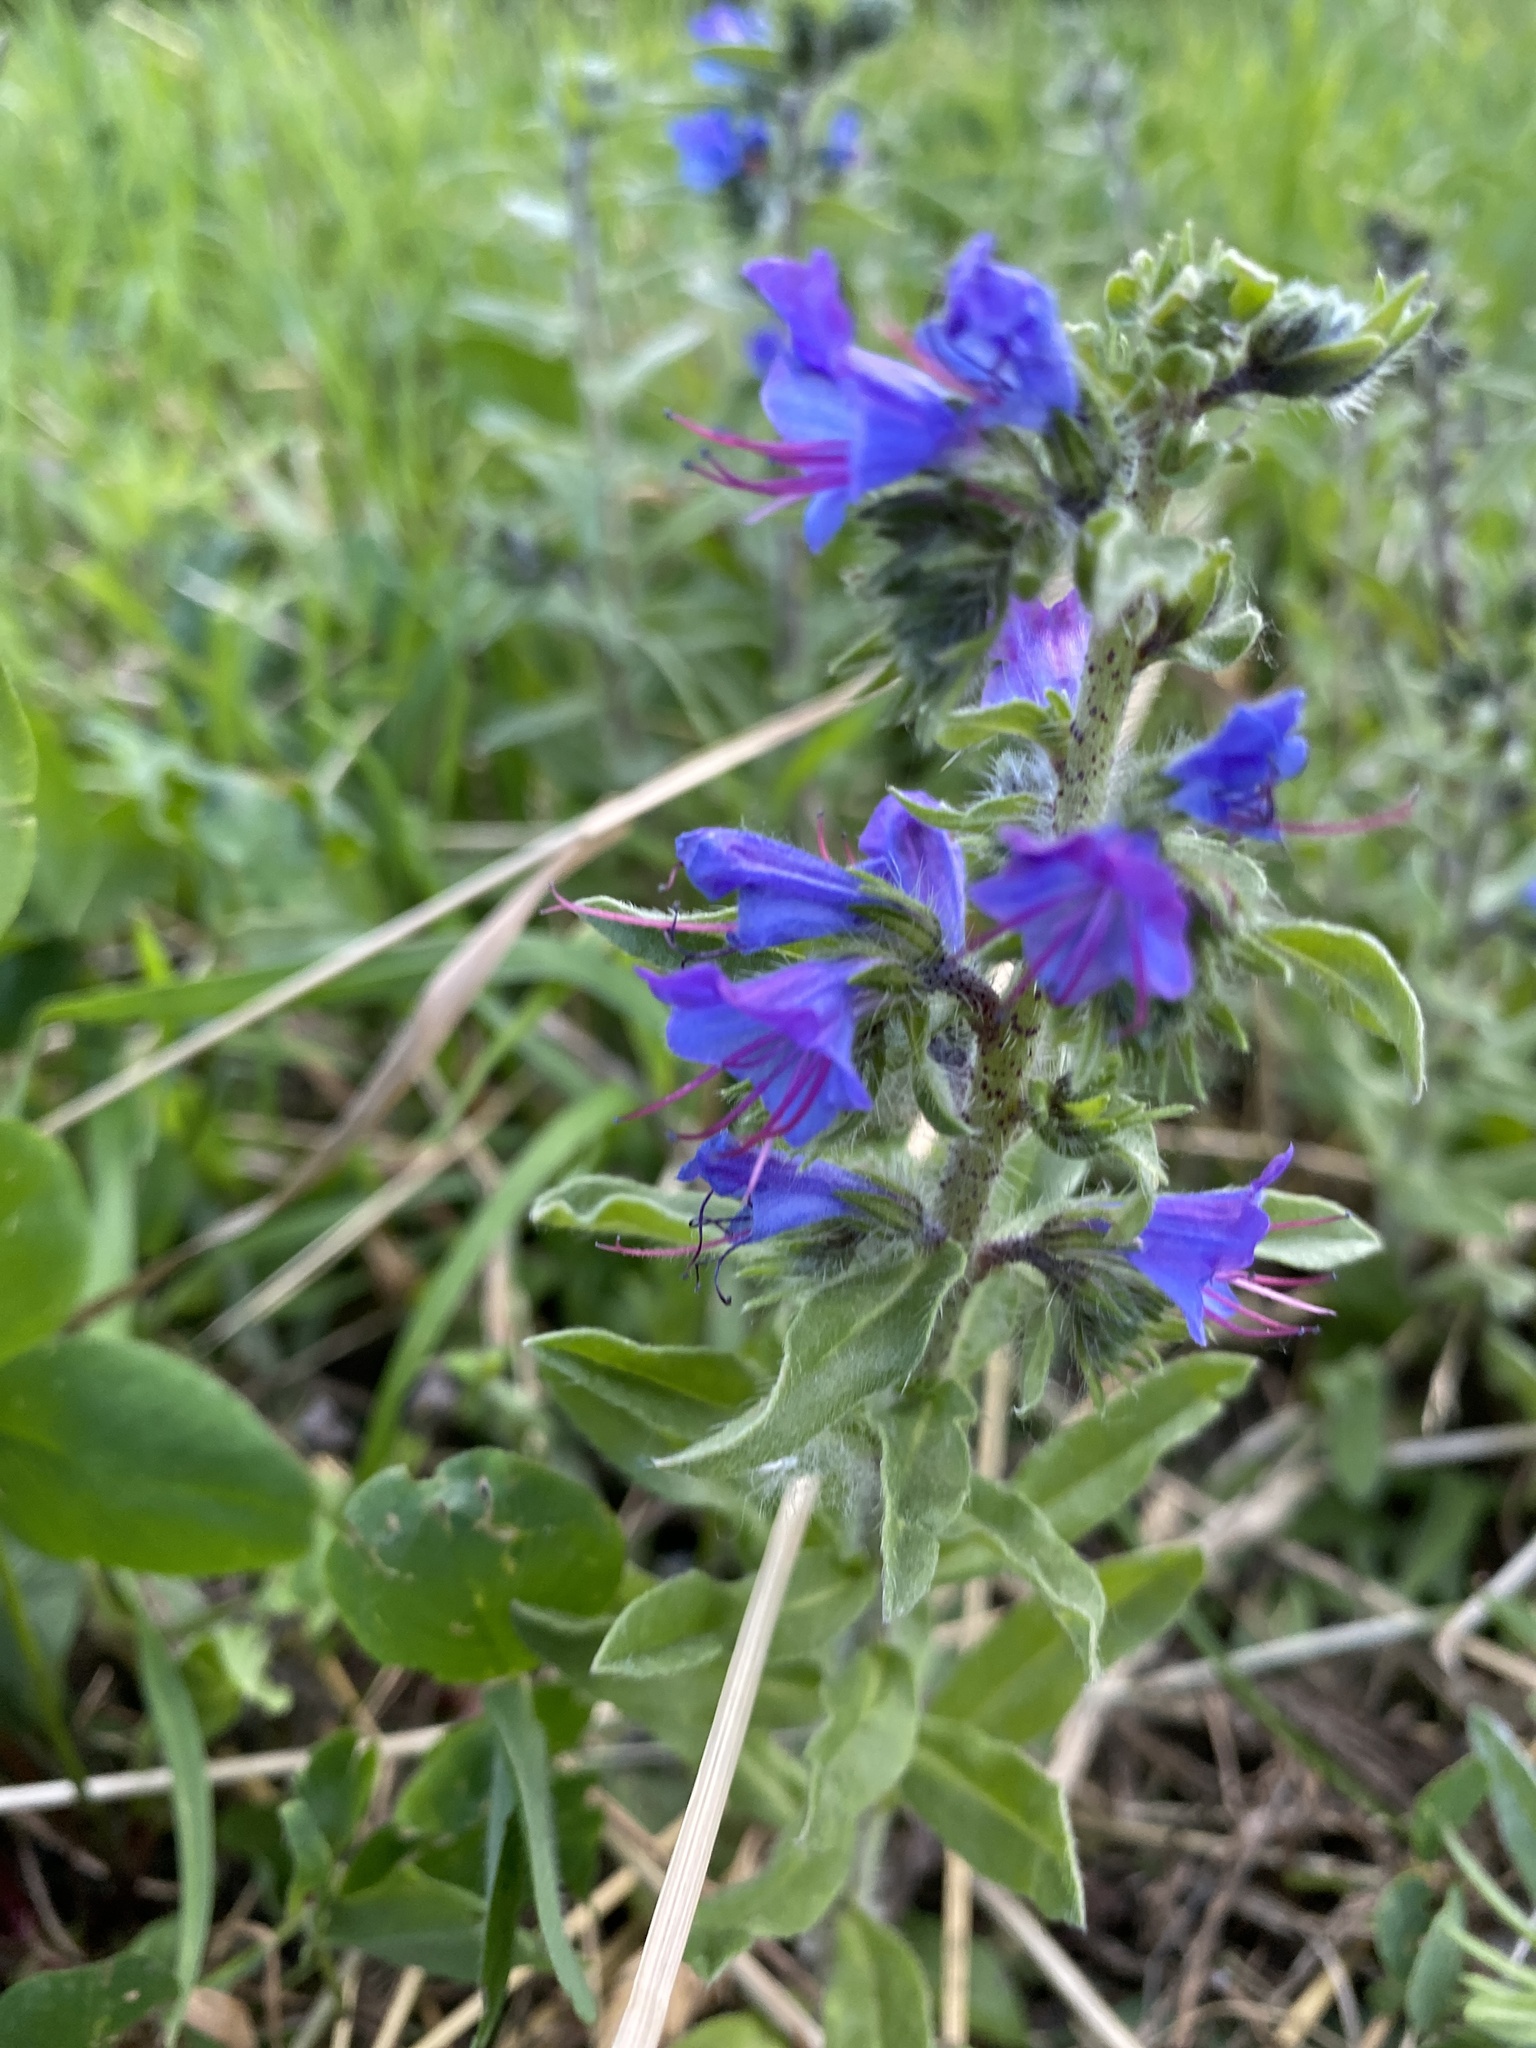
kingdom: Plantae
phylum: Tracheophyta
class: Magnoliopsida
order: Boraginales
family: Boraginaceae
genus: Echium
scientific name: Echium vulgare
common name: Common viper's bugloss
